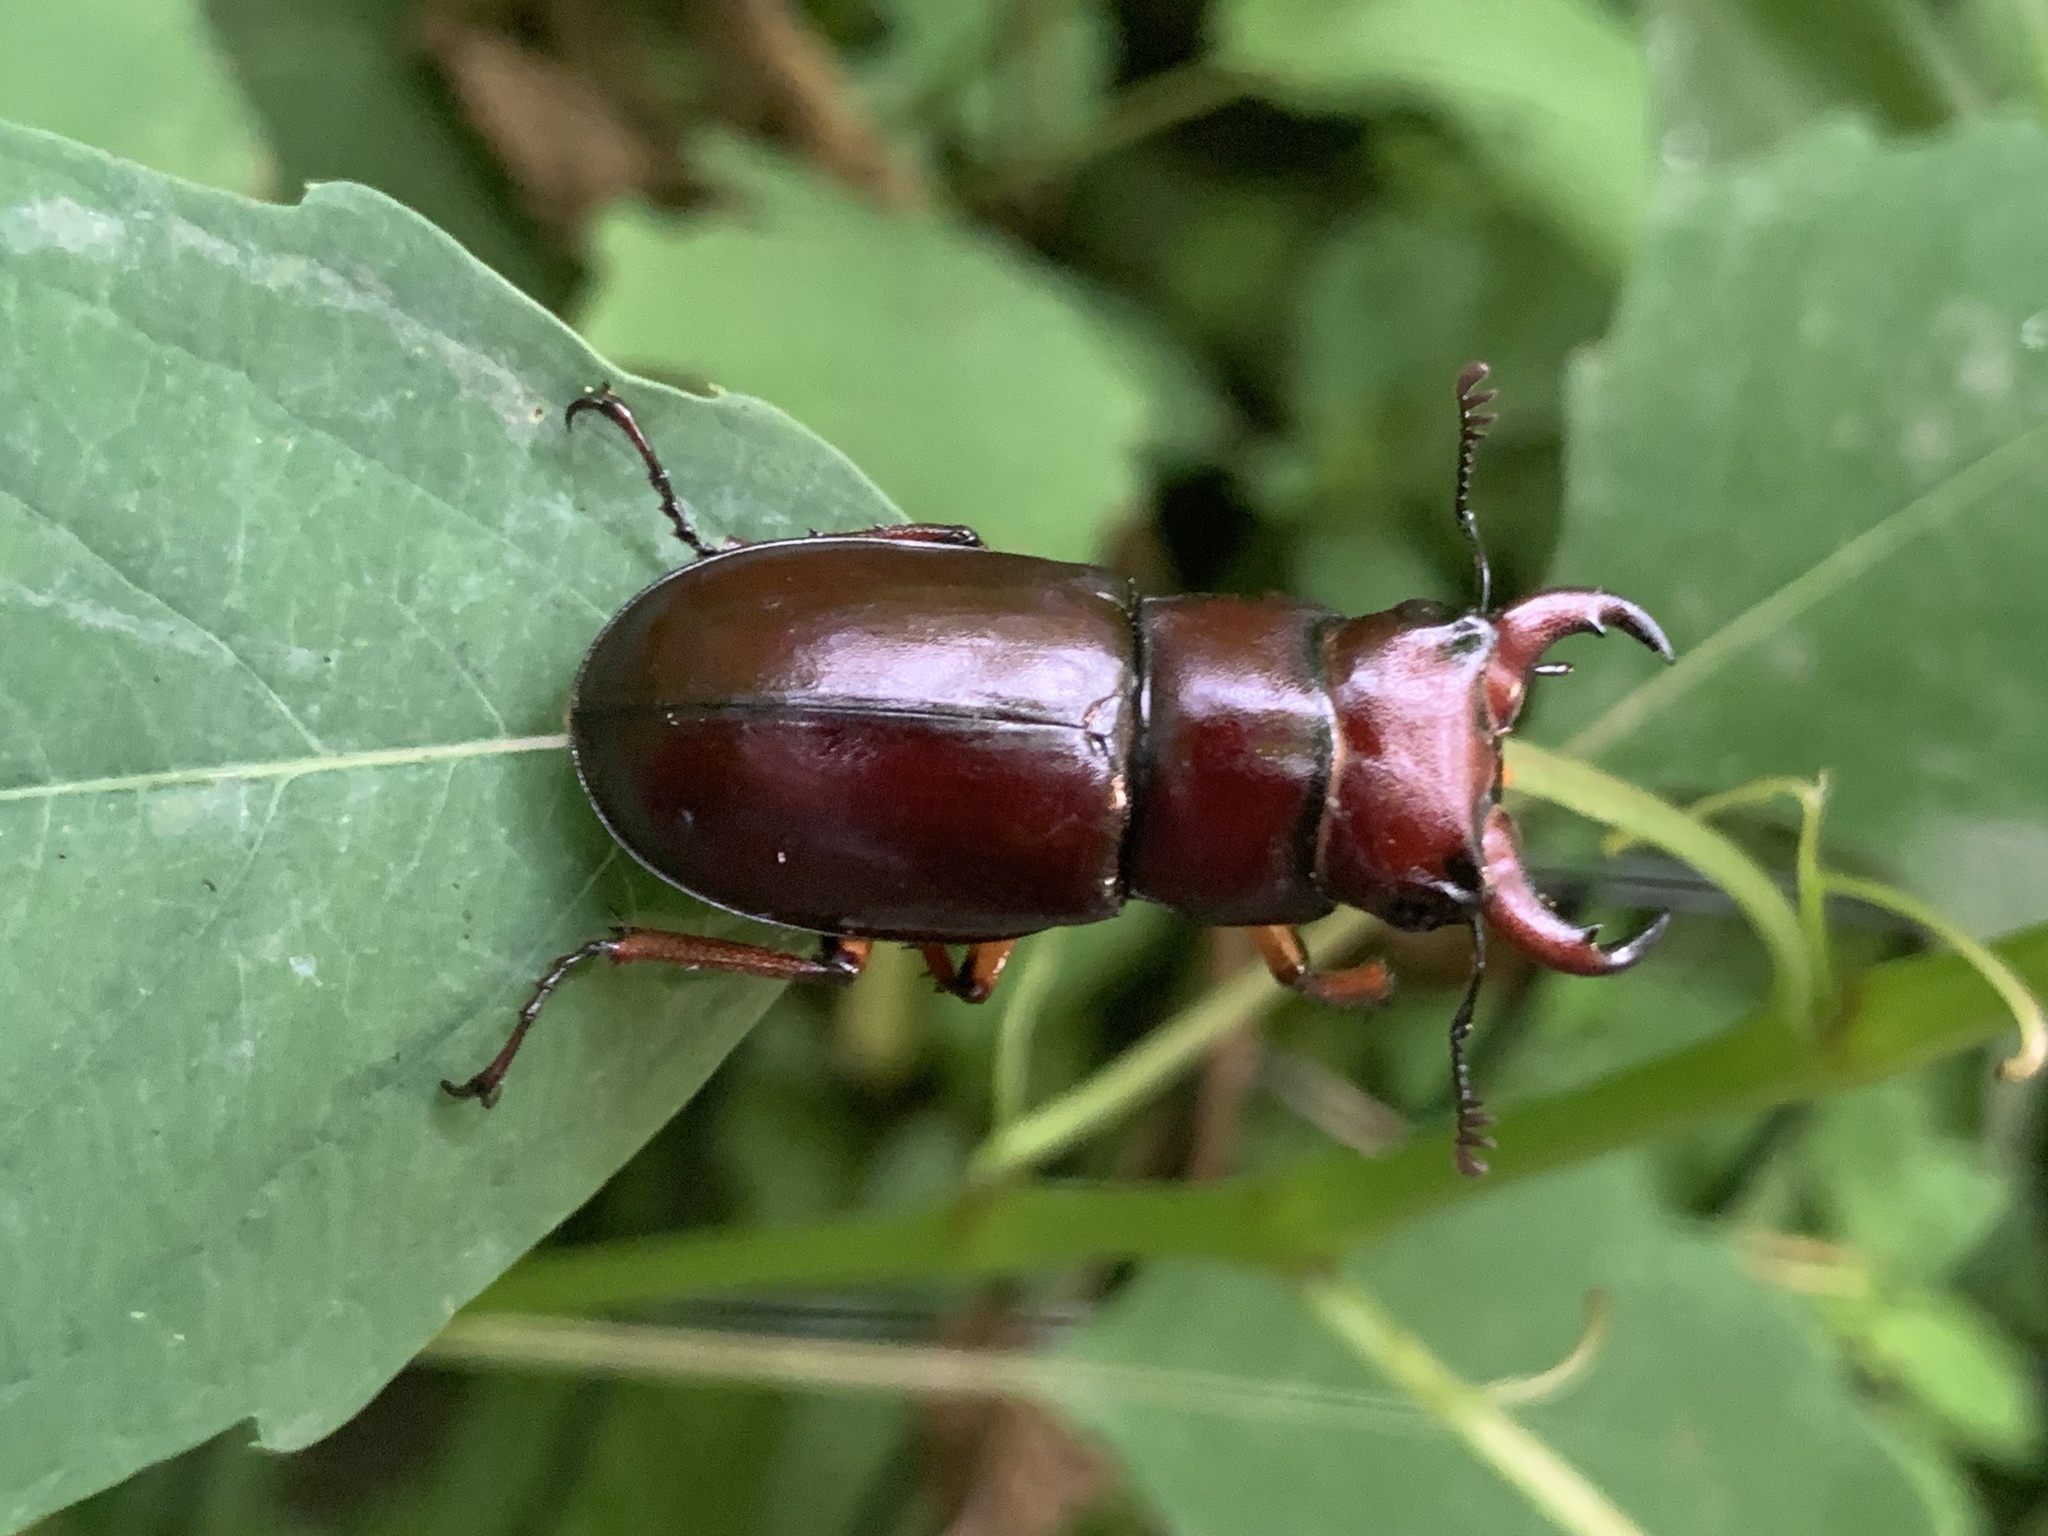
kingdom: Animalia
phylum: Arthropoda
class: Insecta
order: Coleoptera
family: Lucanidae
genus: Lucanus
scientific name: Lucanus capreolus
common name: Stag beetle
